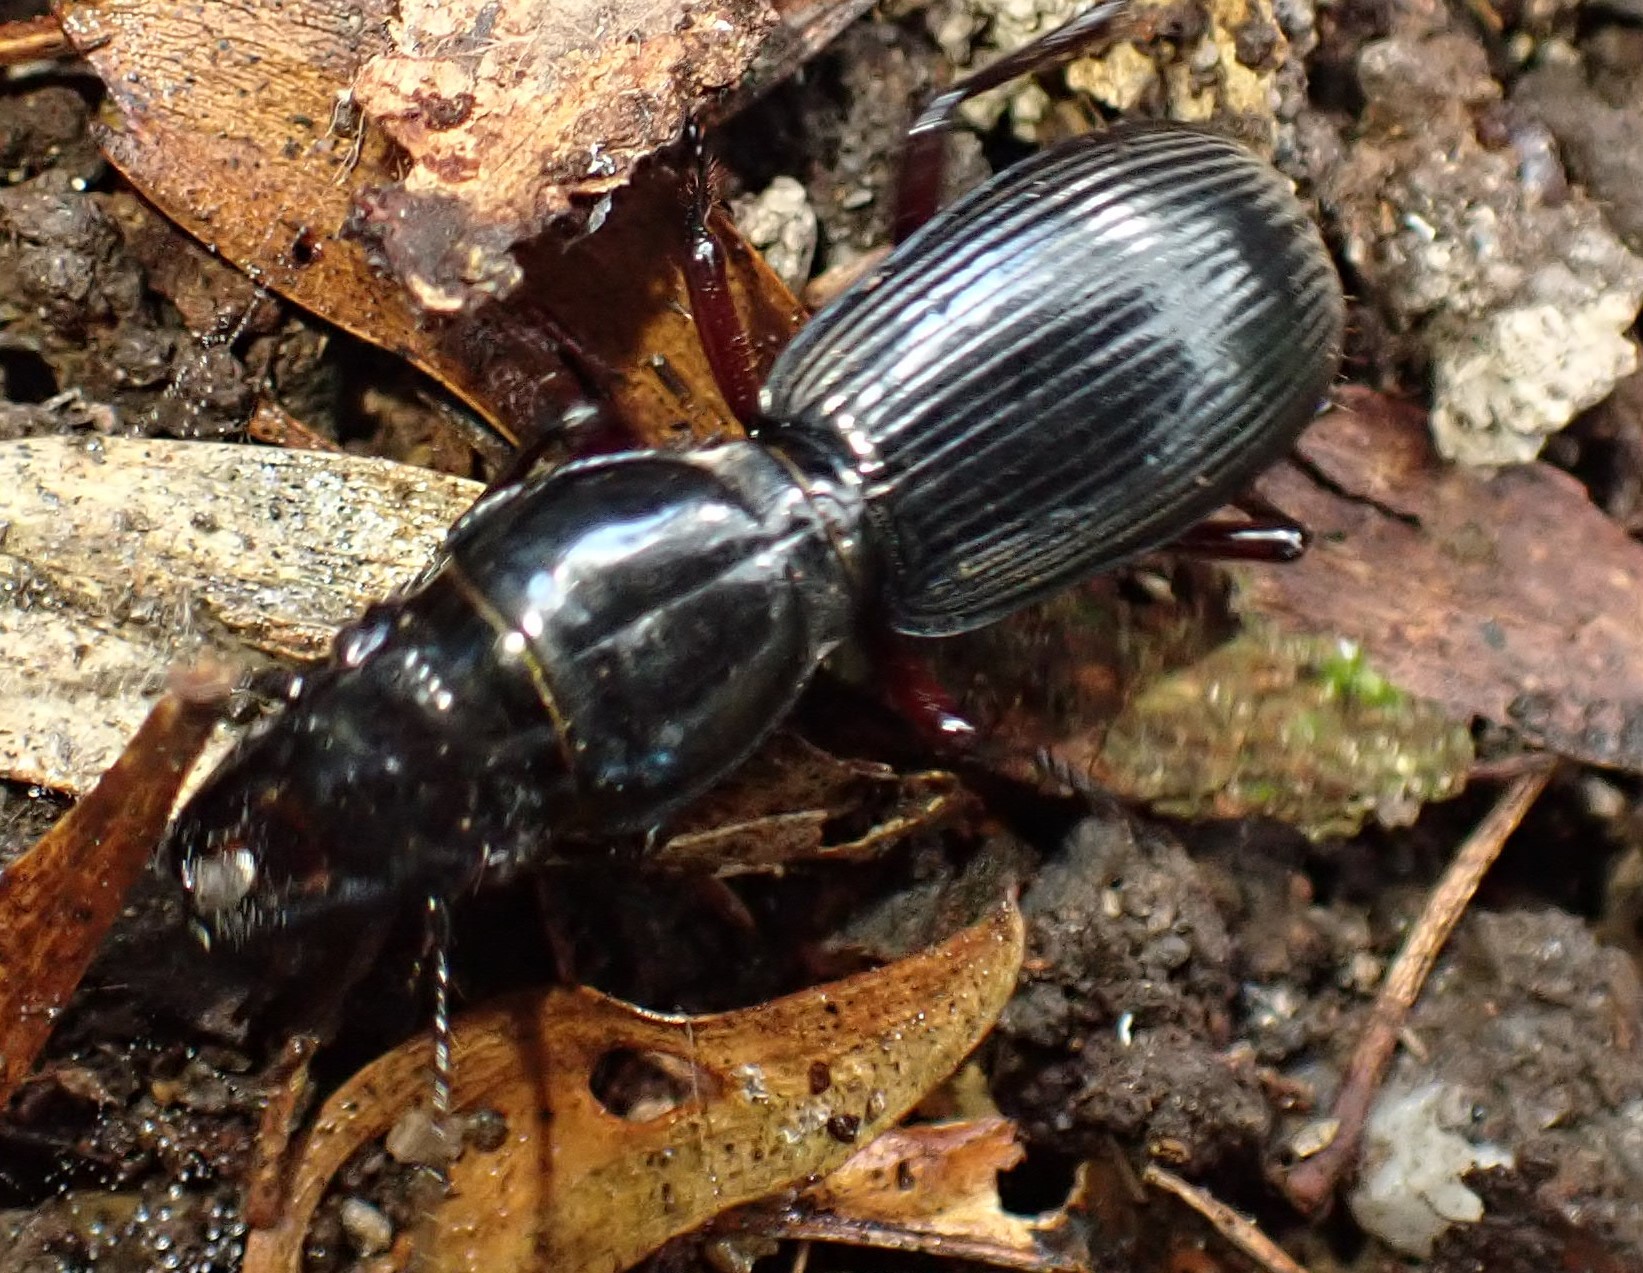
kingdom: Animalia
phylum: Arthropoda
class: Insecta
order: Coleoptera
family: Carabidae
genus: Percosoma
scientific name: Percosoma sulcipenne
